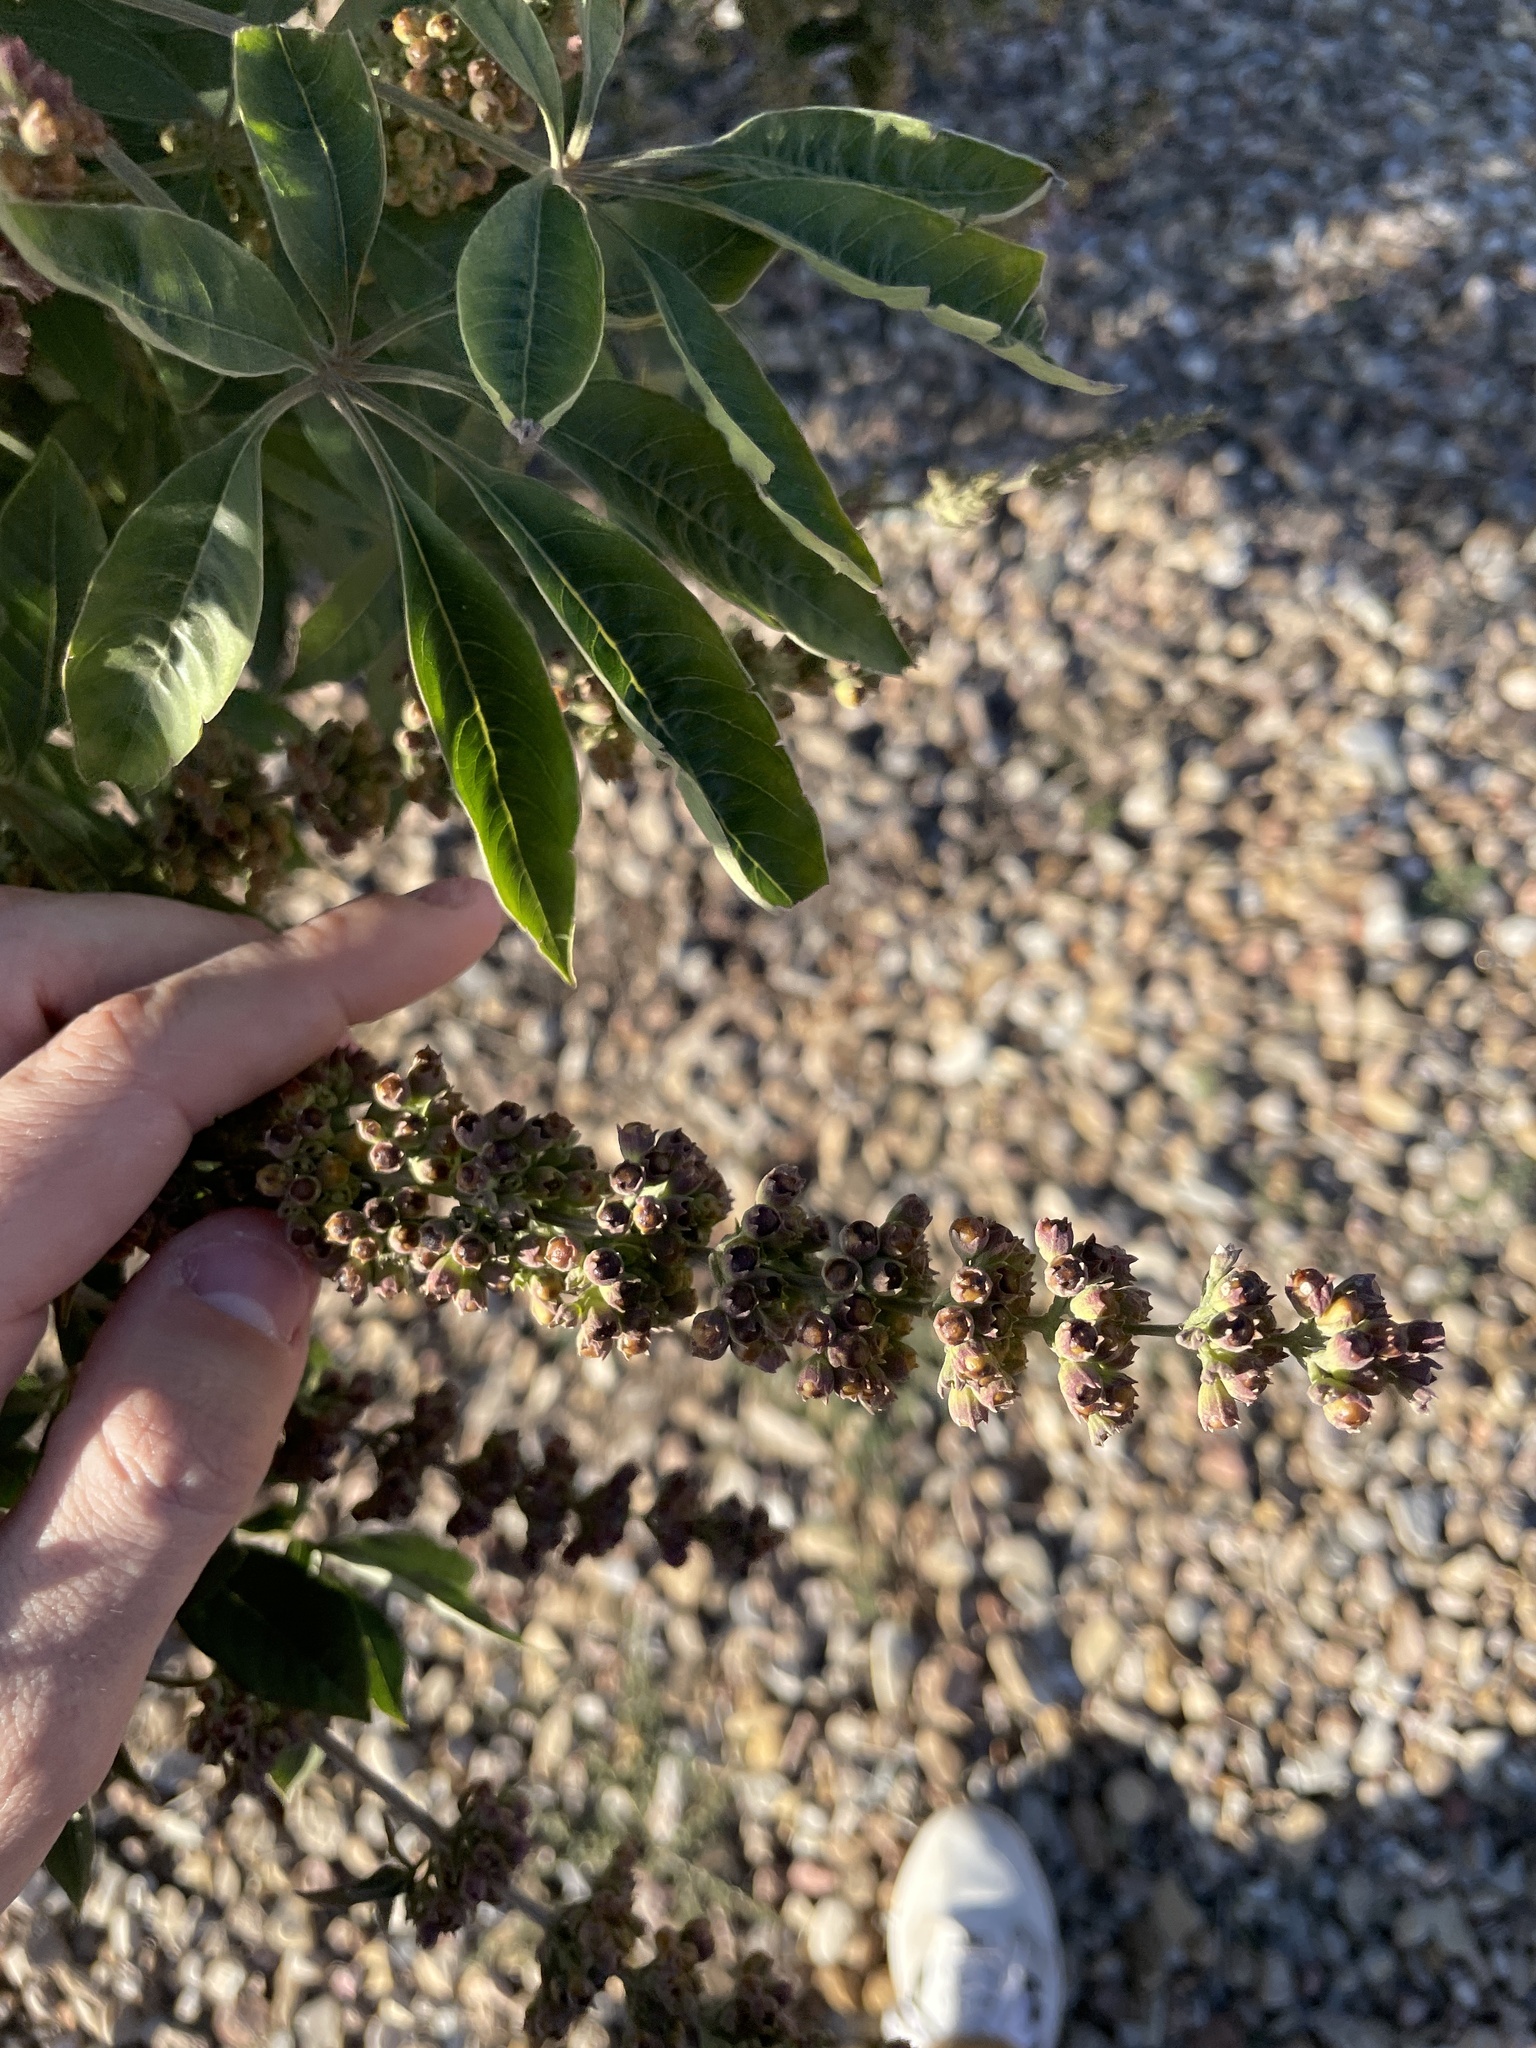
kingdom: Plantae
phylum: Tracheophyta
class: Magnoliopsida
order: Lamiales
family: Lamiaceae
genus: Vitex
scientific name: Vitex agnus-castus
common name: Chasteberry
